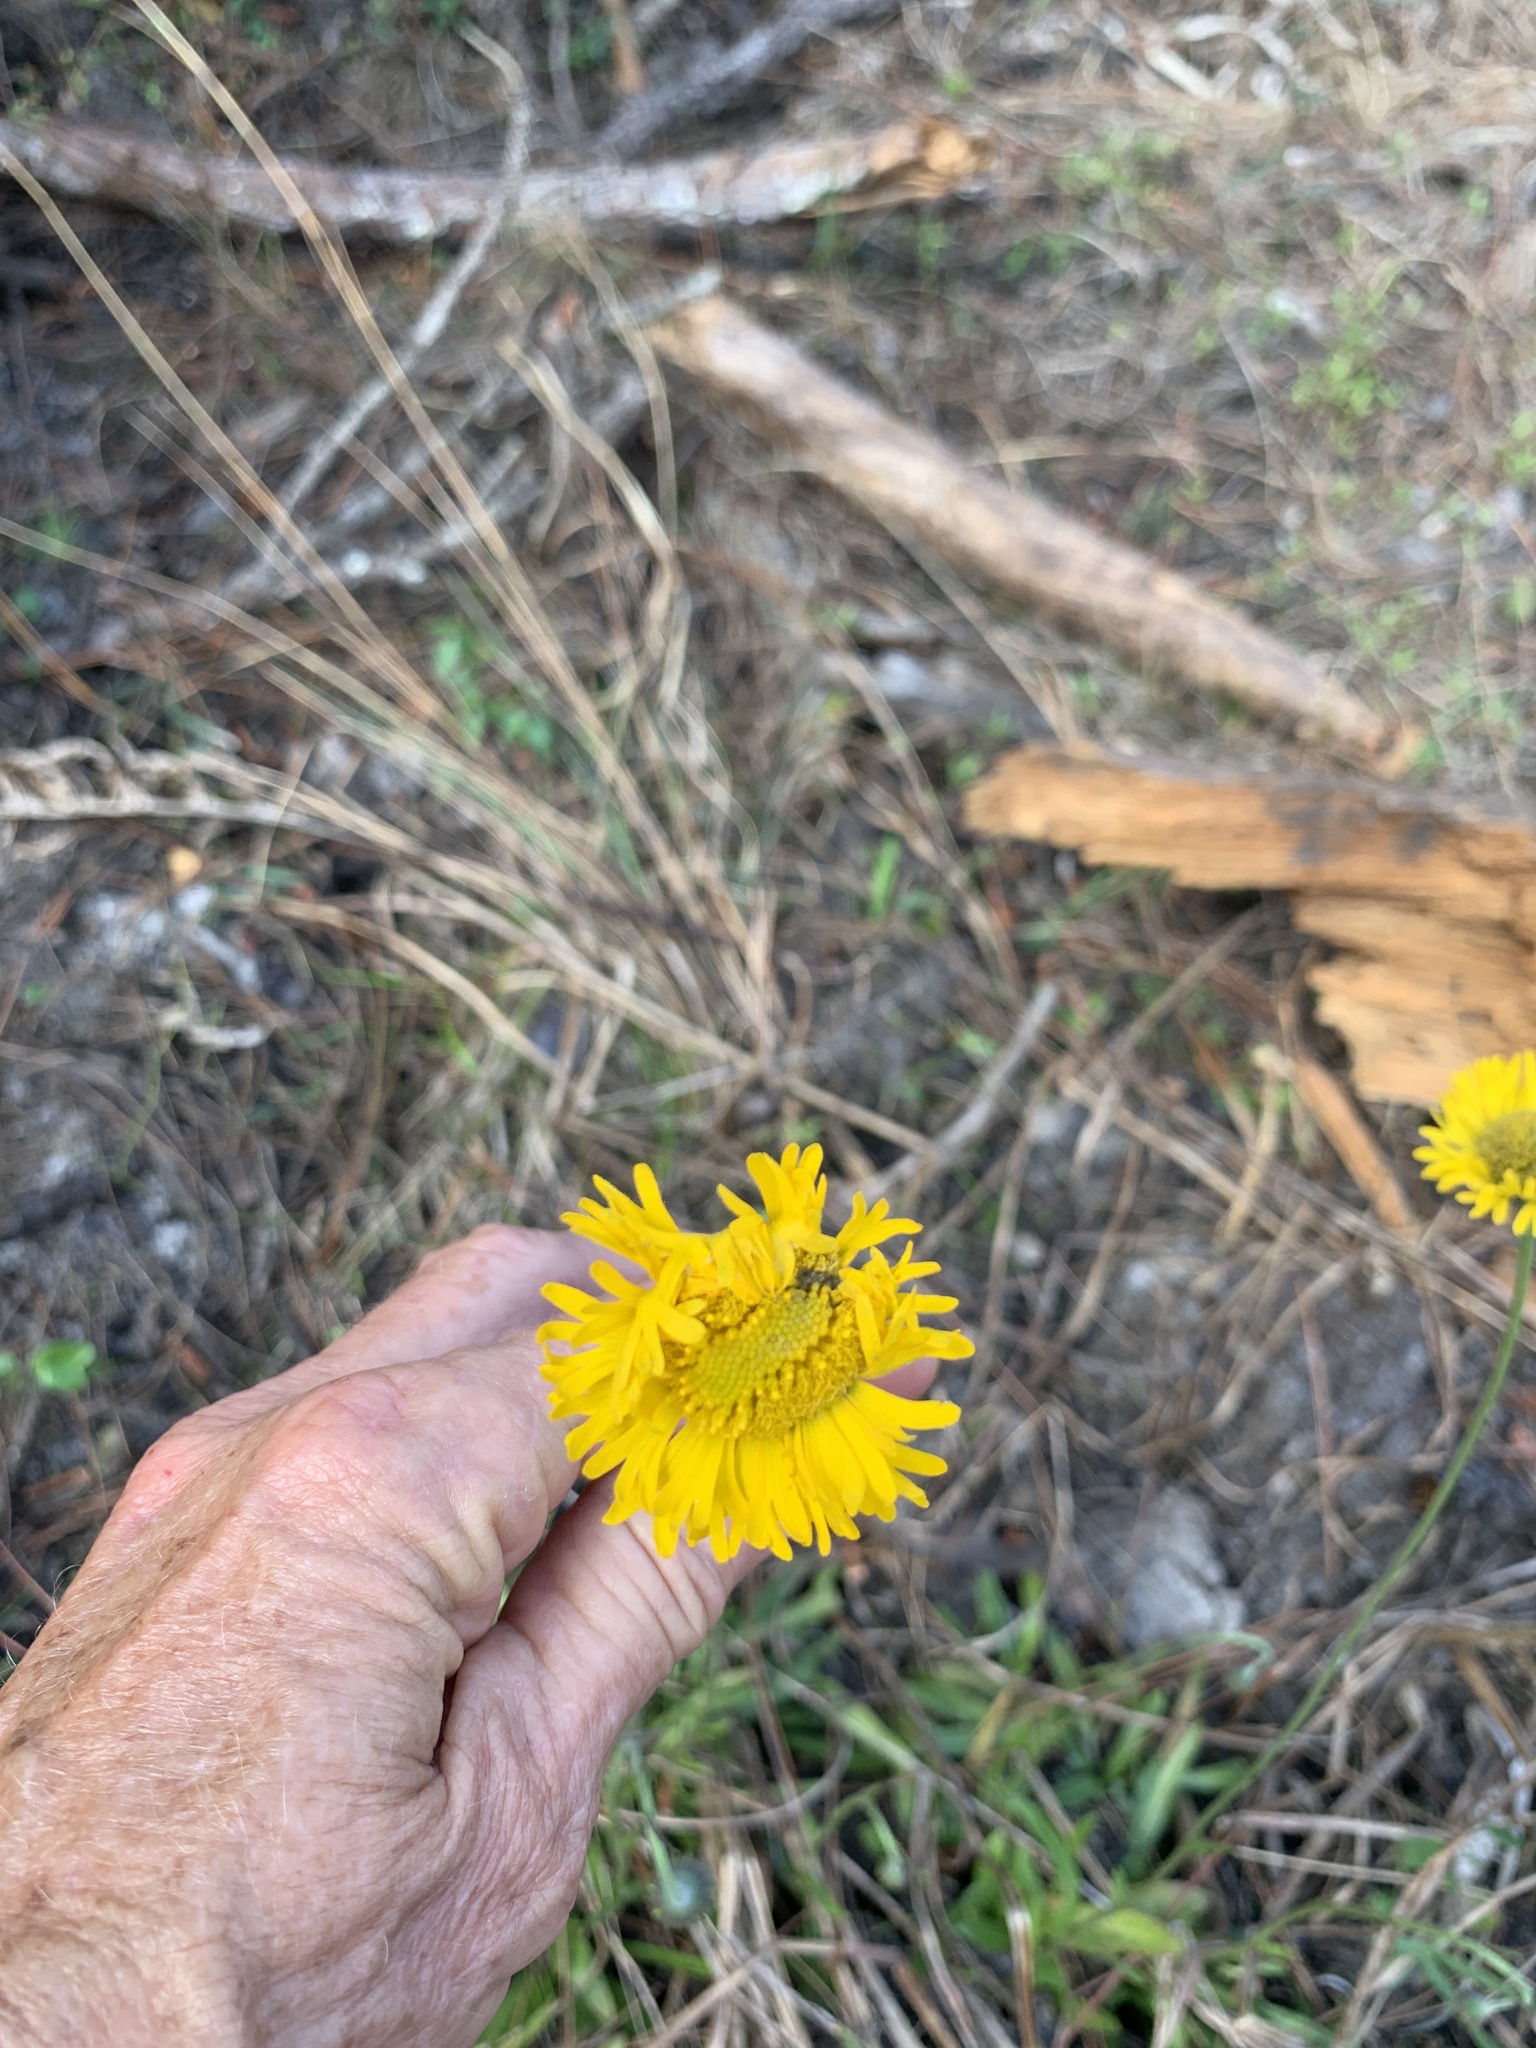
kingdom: Plantae
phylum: Tracheophyta
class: Magnoliopsida
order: Asterales
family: Asteraceae
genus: Helenium
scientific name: Helenium pinnatifidum
